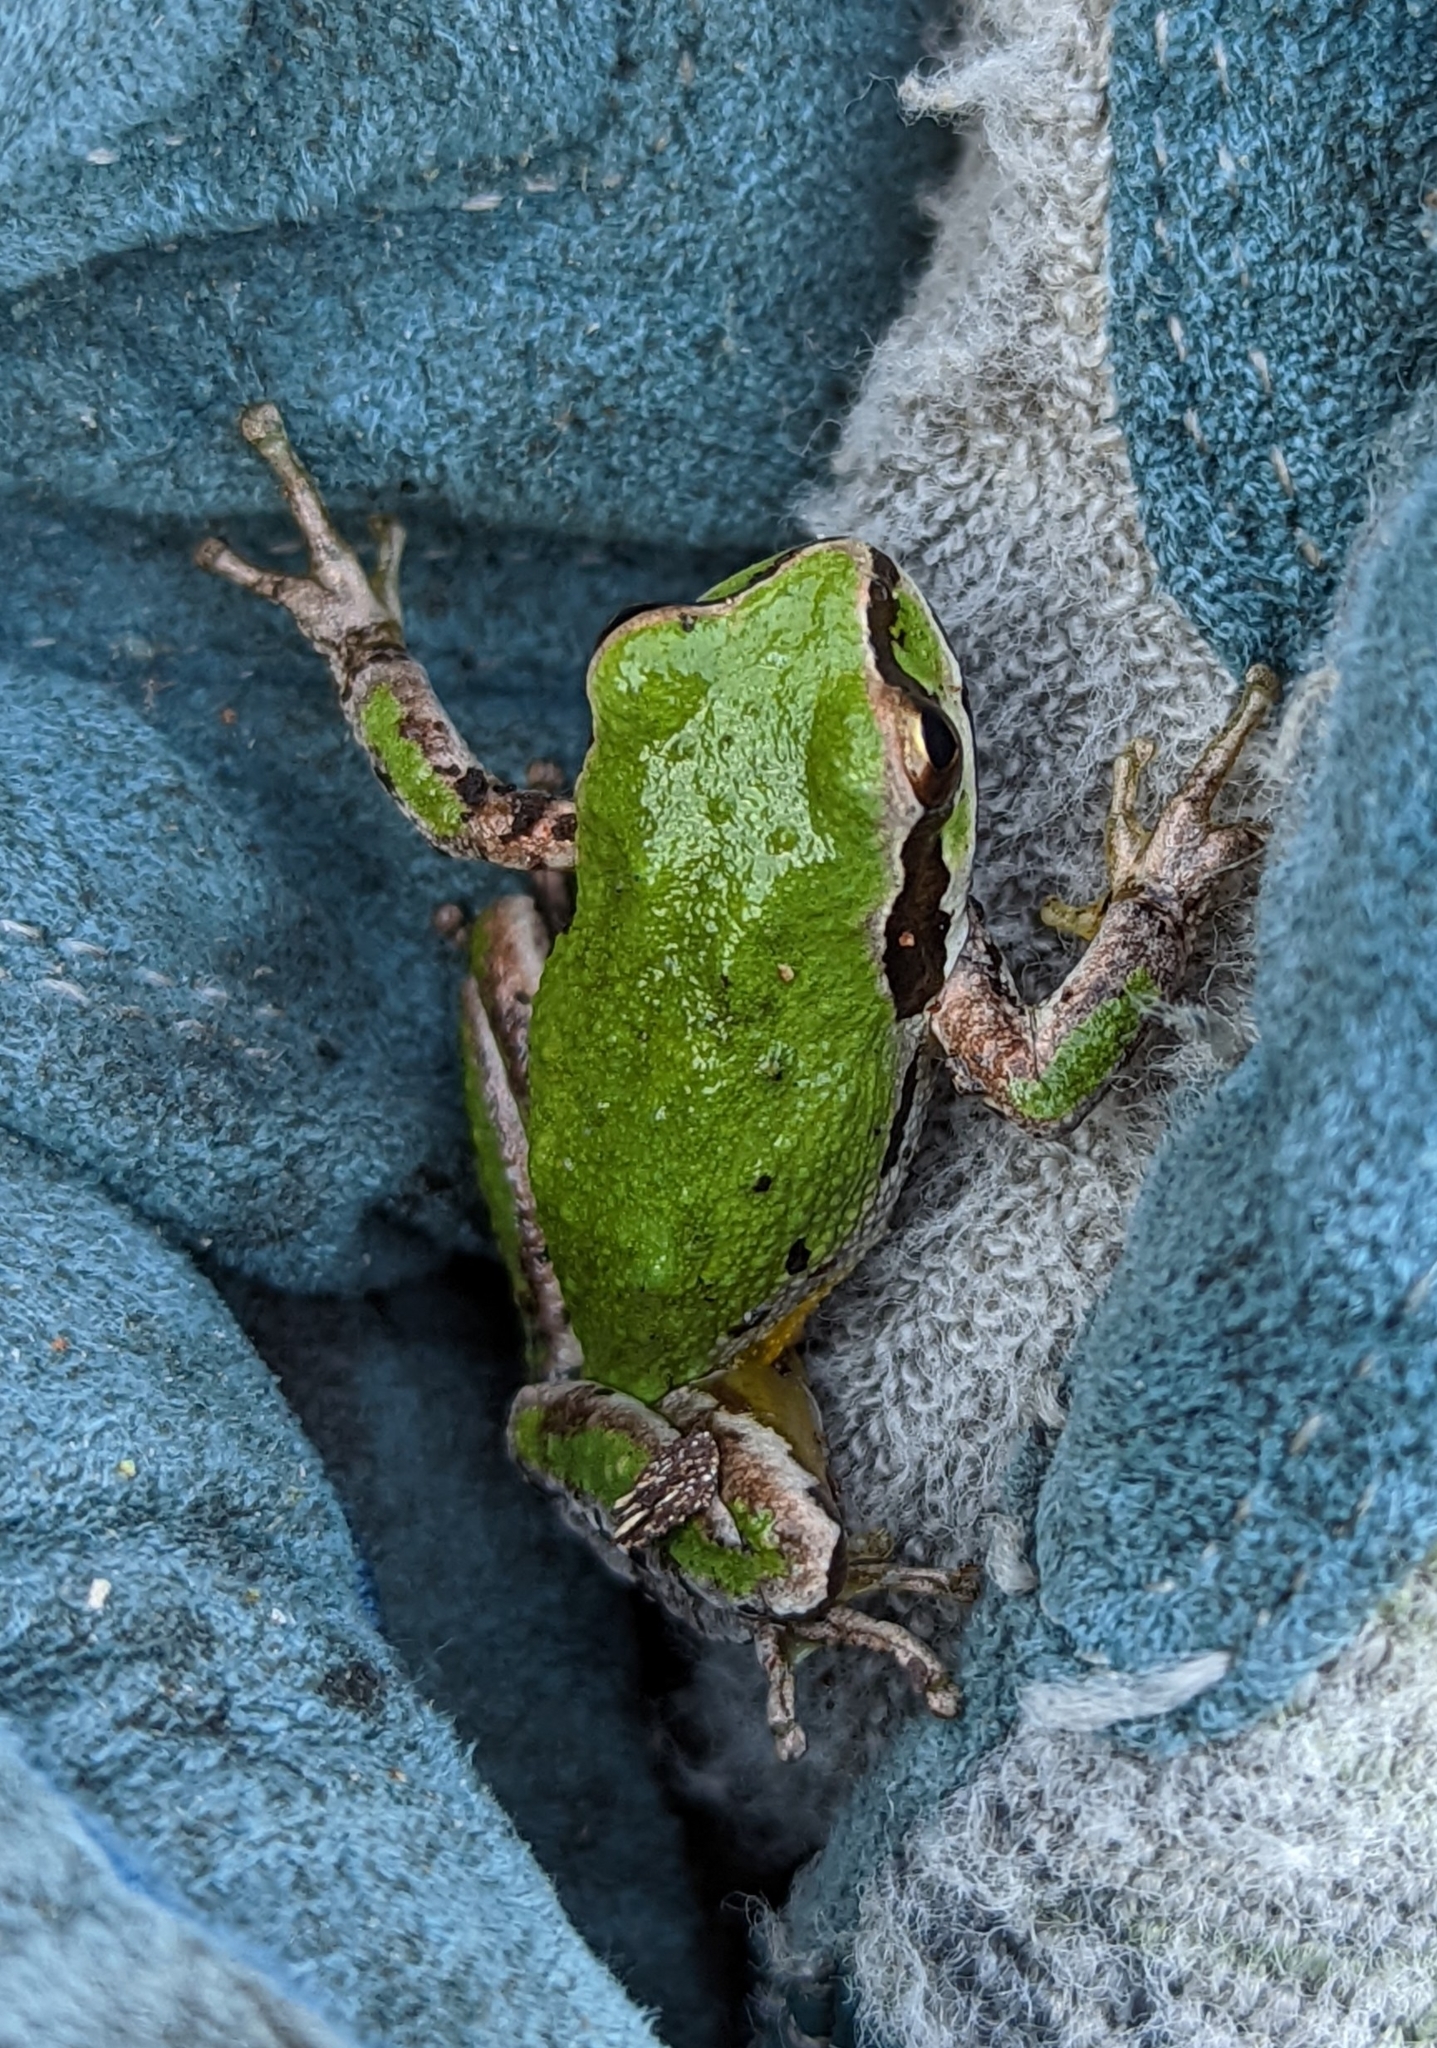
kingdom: Animalia
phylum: Chordata
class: Amphibia
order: Anura
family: Hylidae
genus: Pseudacris
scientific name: Pseudacris regilla
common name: Pacific chorus frog
